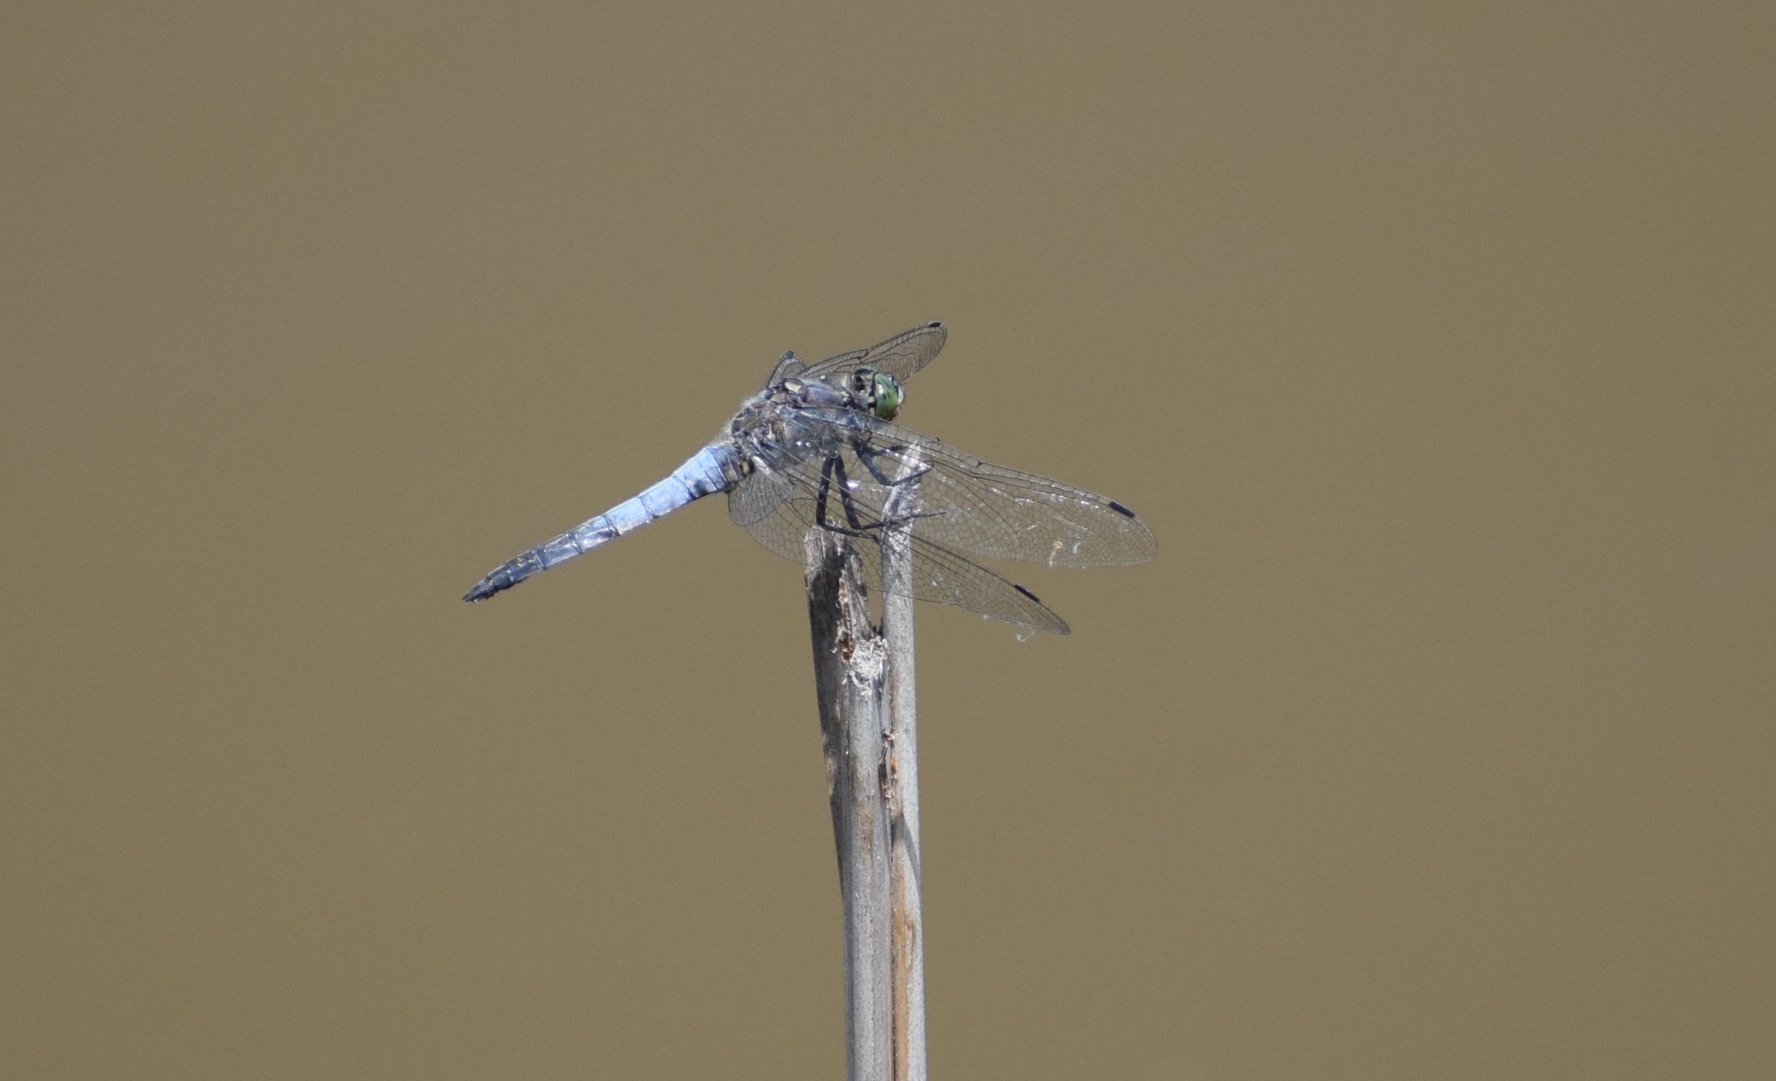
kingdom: Animalia
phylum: Arthropoda
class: Insecta
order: Odonata
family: Libellulidae
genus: Orthetrum
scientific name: Orthetrum cancellatum
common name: Black-tailed skimmer
